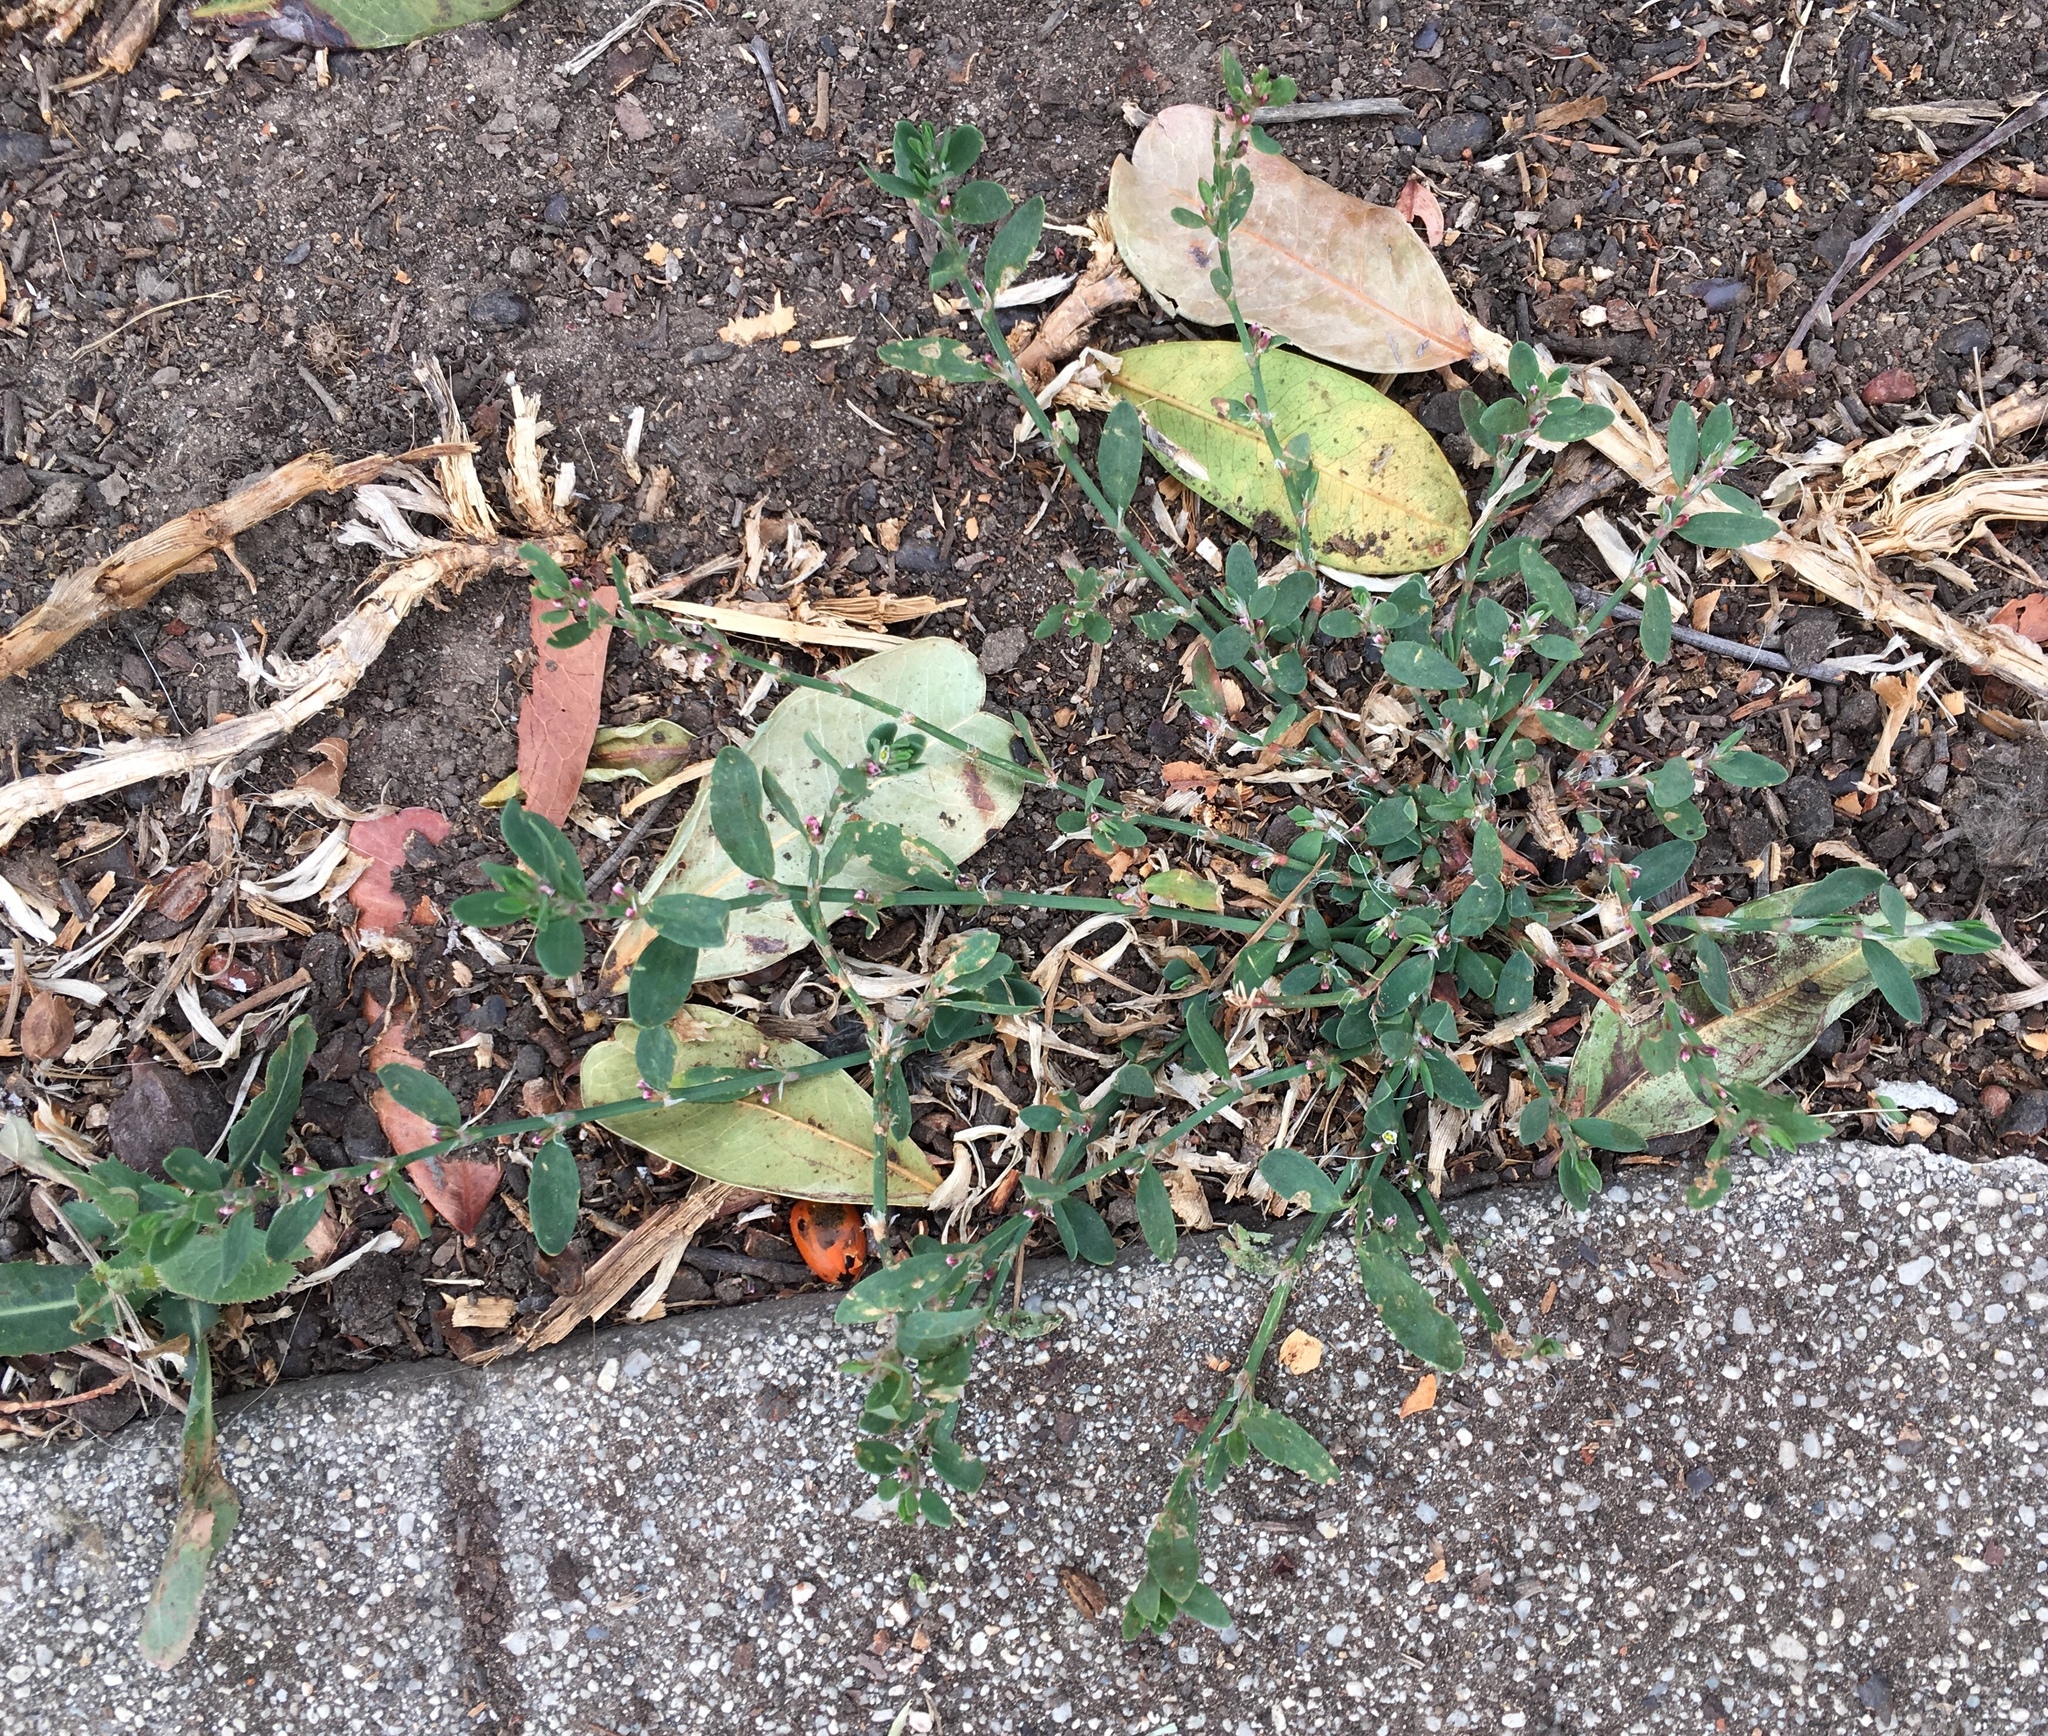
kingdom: Plantae
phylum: Tracheophyta
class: Magnoliopsida
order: Caryophyllales
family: Polygonaceae
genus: Polygonum
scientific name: Polygonum aviculare
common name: Prostrate knotweed
